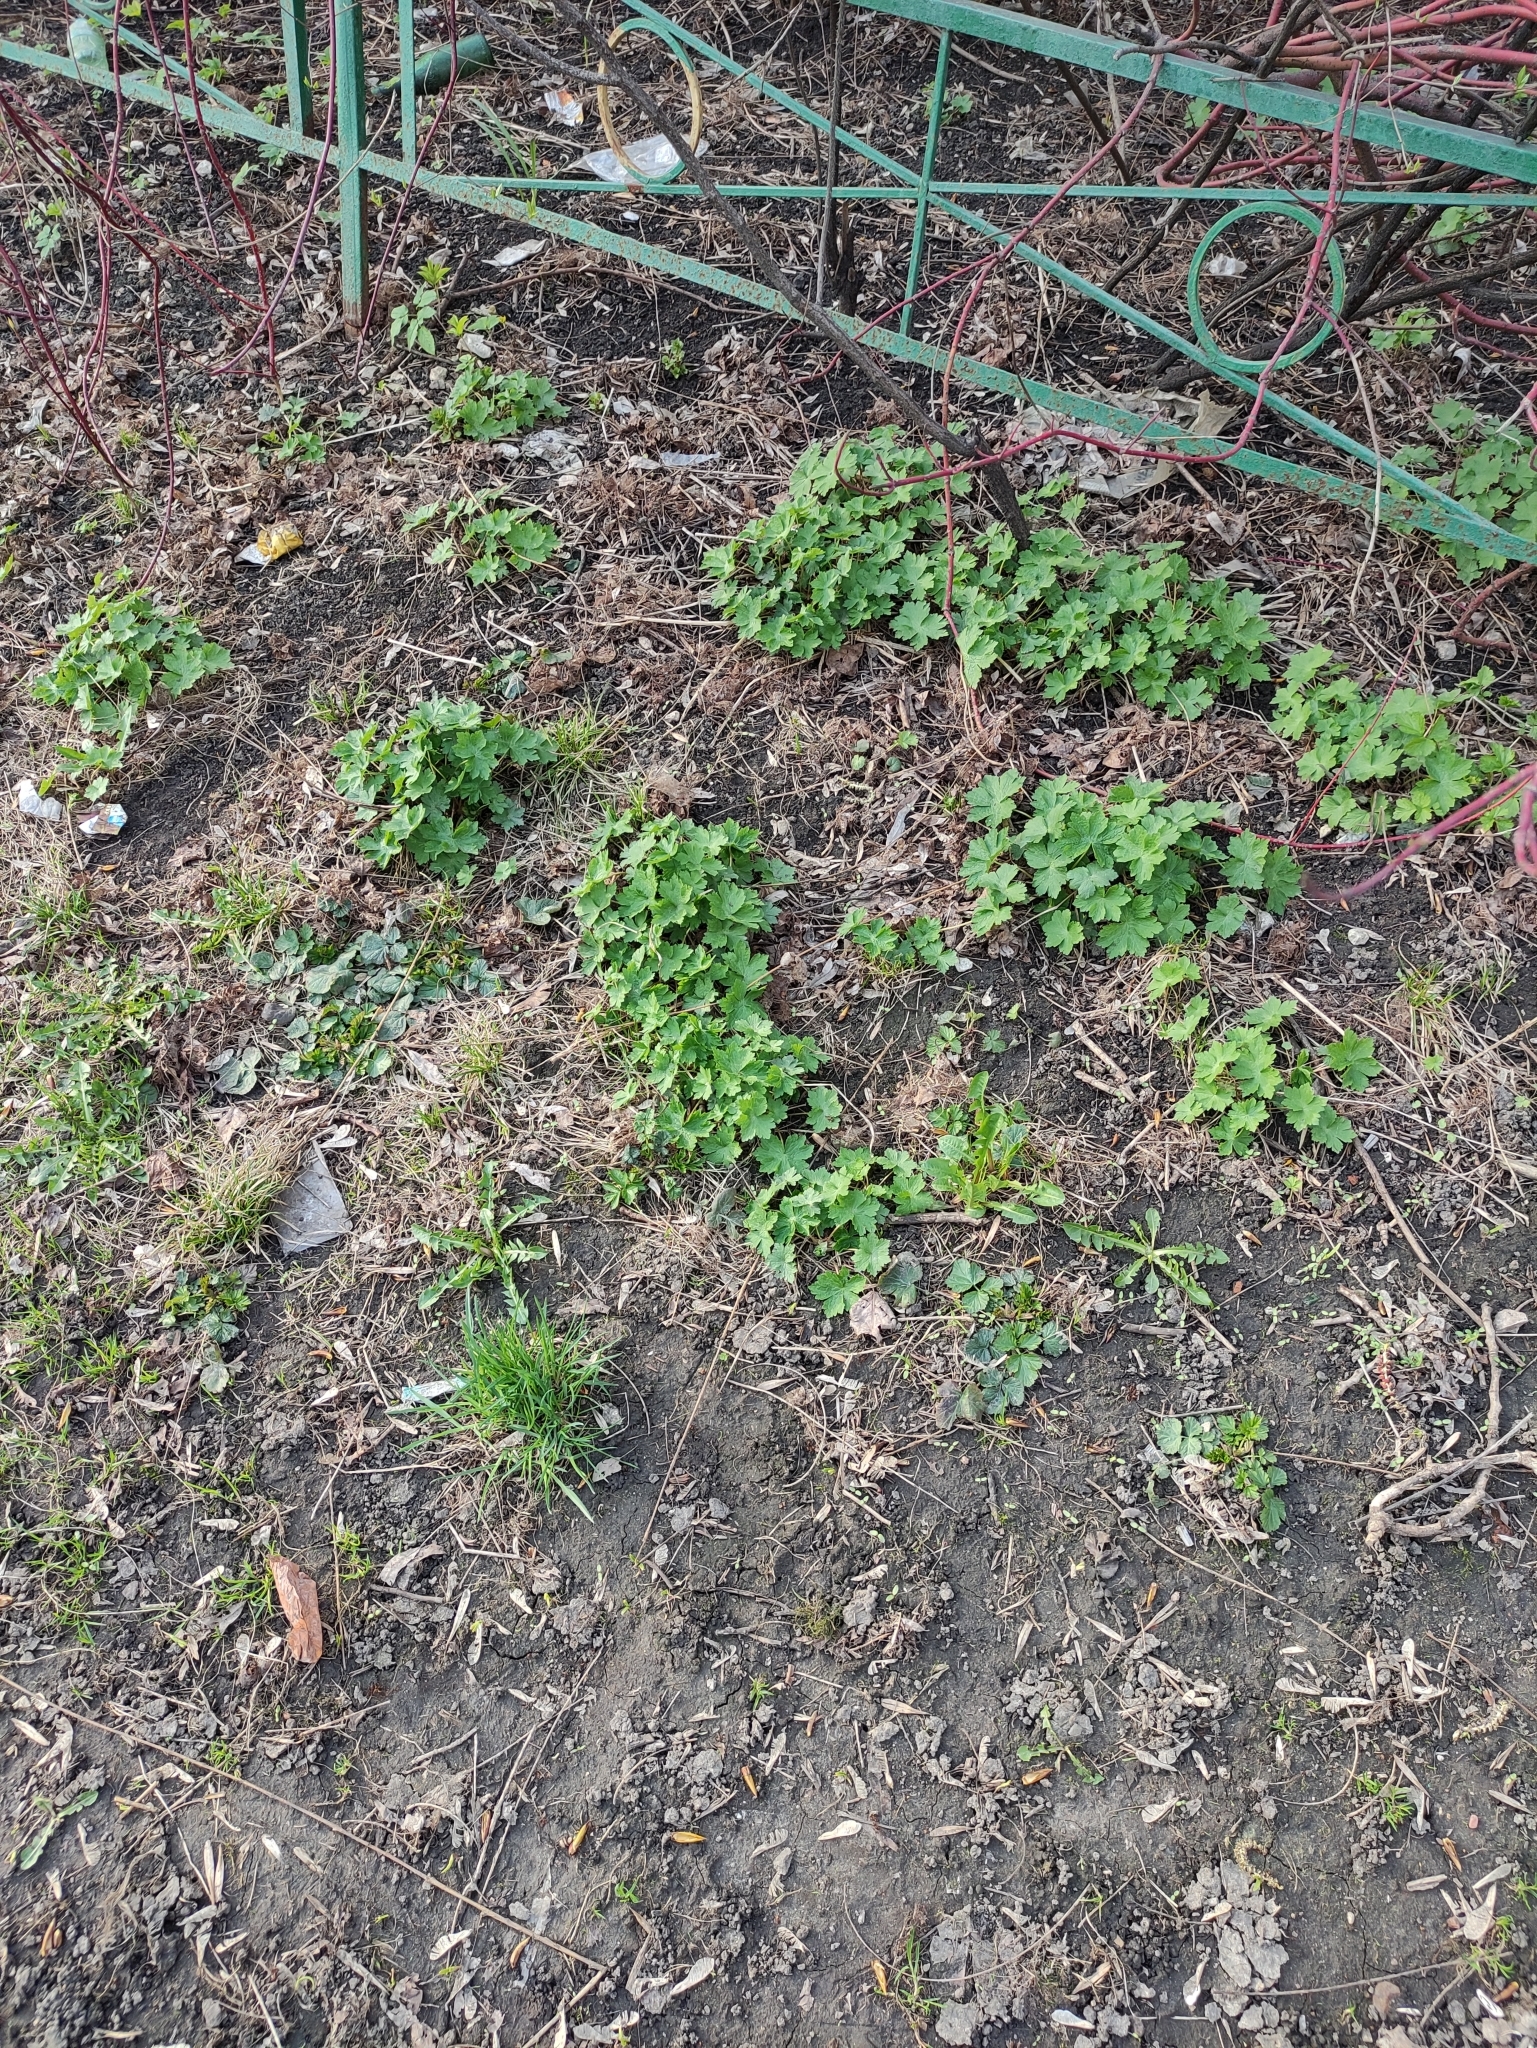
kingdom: Plantae
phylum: Tracheophyta
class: Magnoliopsida
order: Geraniales
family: Geraniaceae
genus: Geranium
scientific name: Geranium phaeum
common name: Dusky crane's-bill
